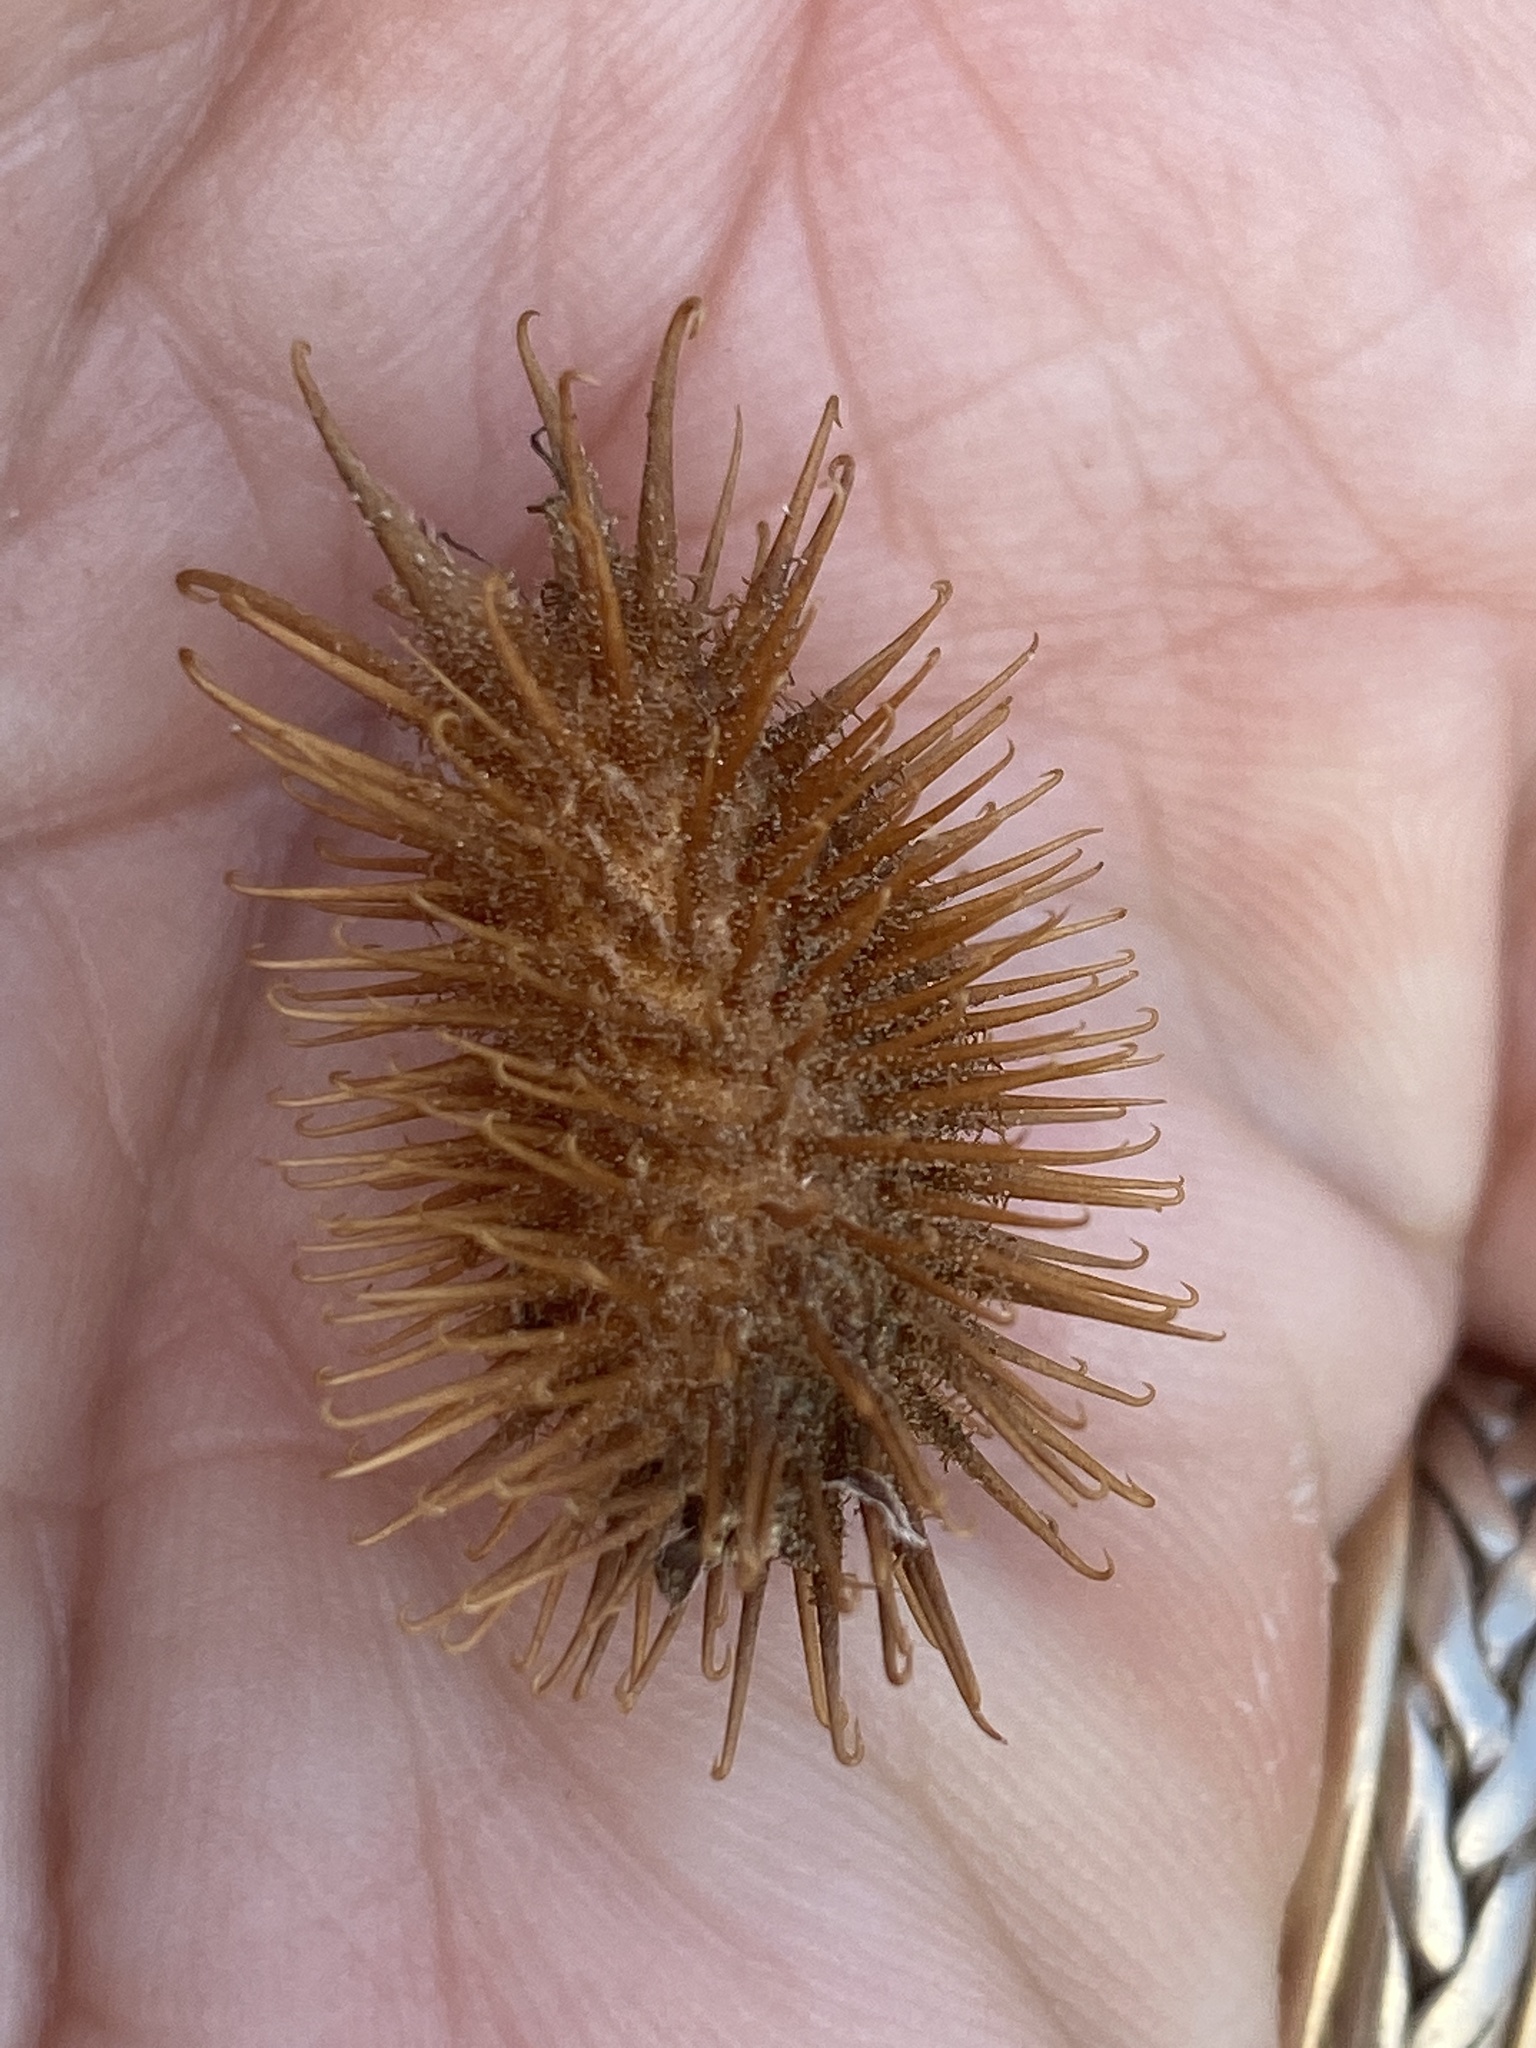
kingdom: Plantae
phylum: Tracheophyta
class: Magnoliopsida
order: Asterales
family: Asteraceae
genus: Xanthium
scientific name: Xanthium orientale
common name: Californian burr
